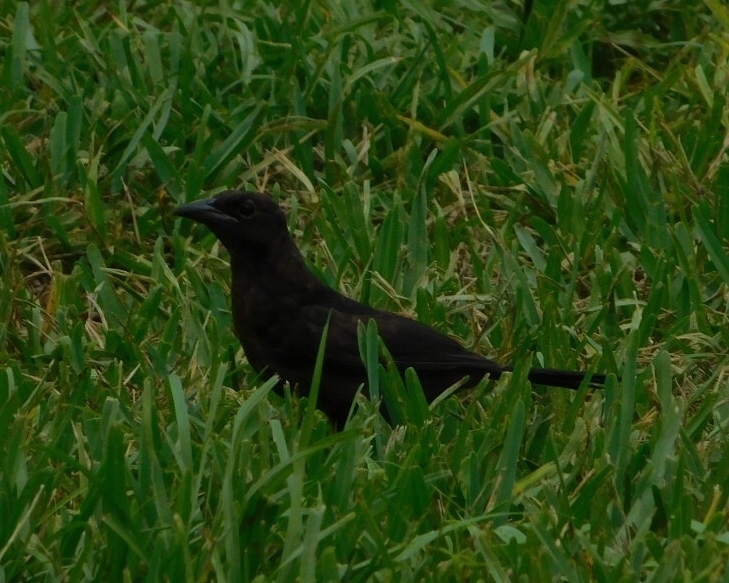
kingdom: Animalia
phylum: Chordata
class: Aves
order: Passeriformes
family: Icteridae
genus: Quiscalus
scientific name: Quiscalus quiscula
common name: Common grackle
